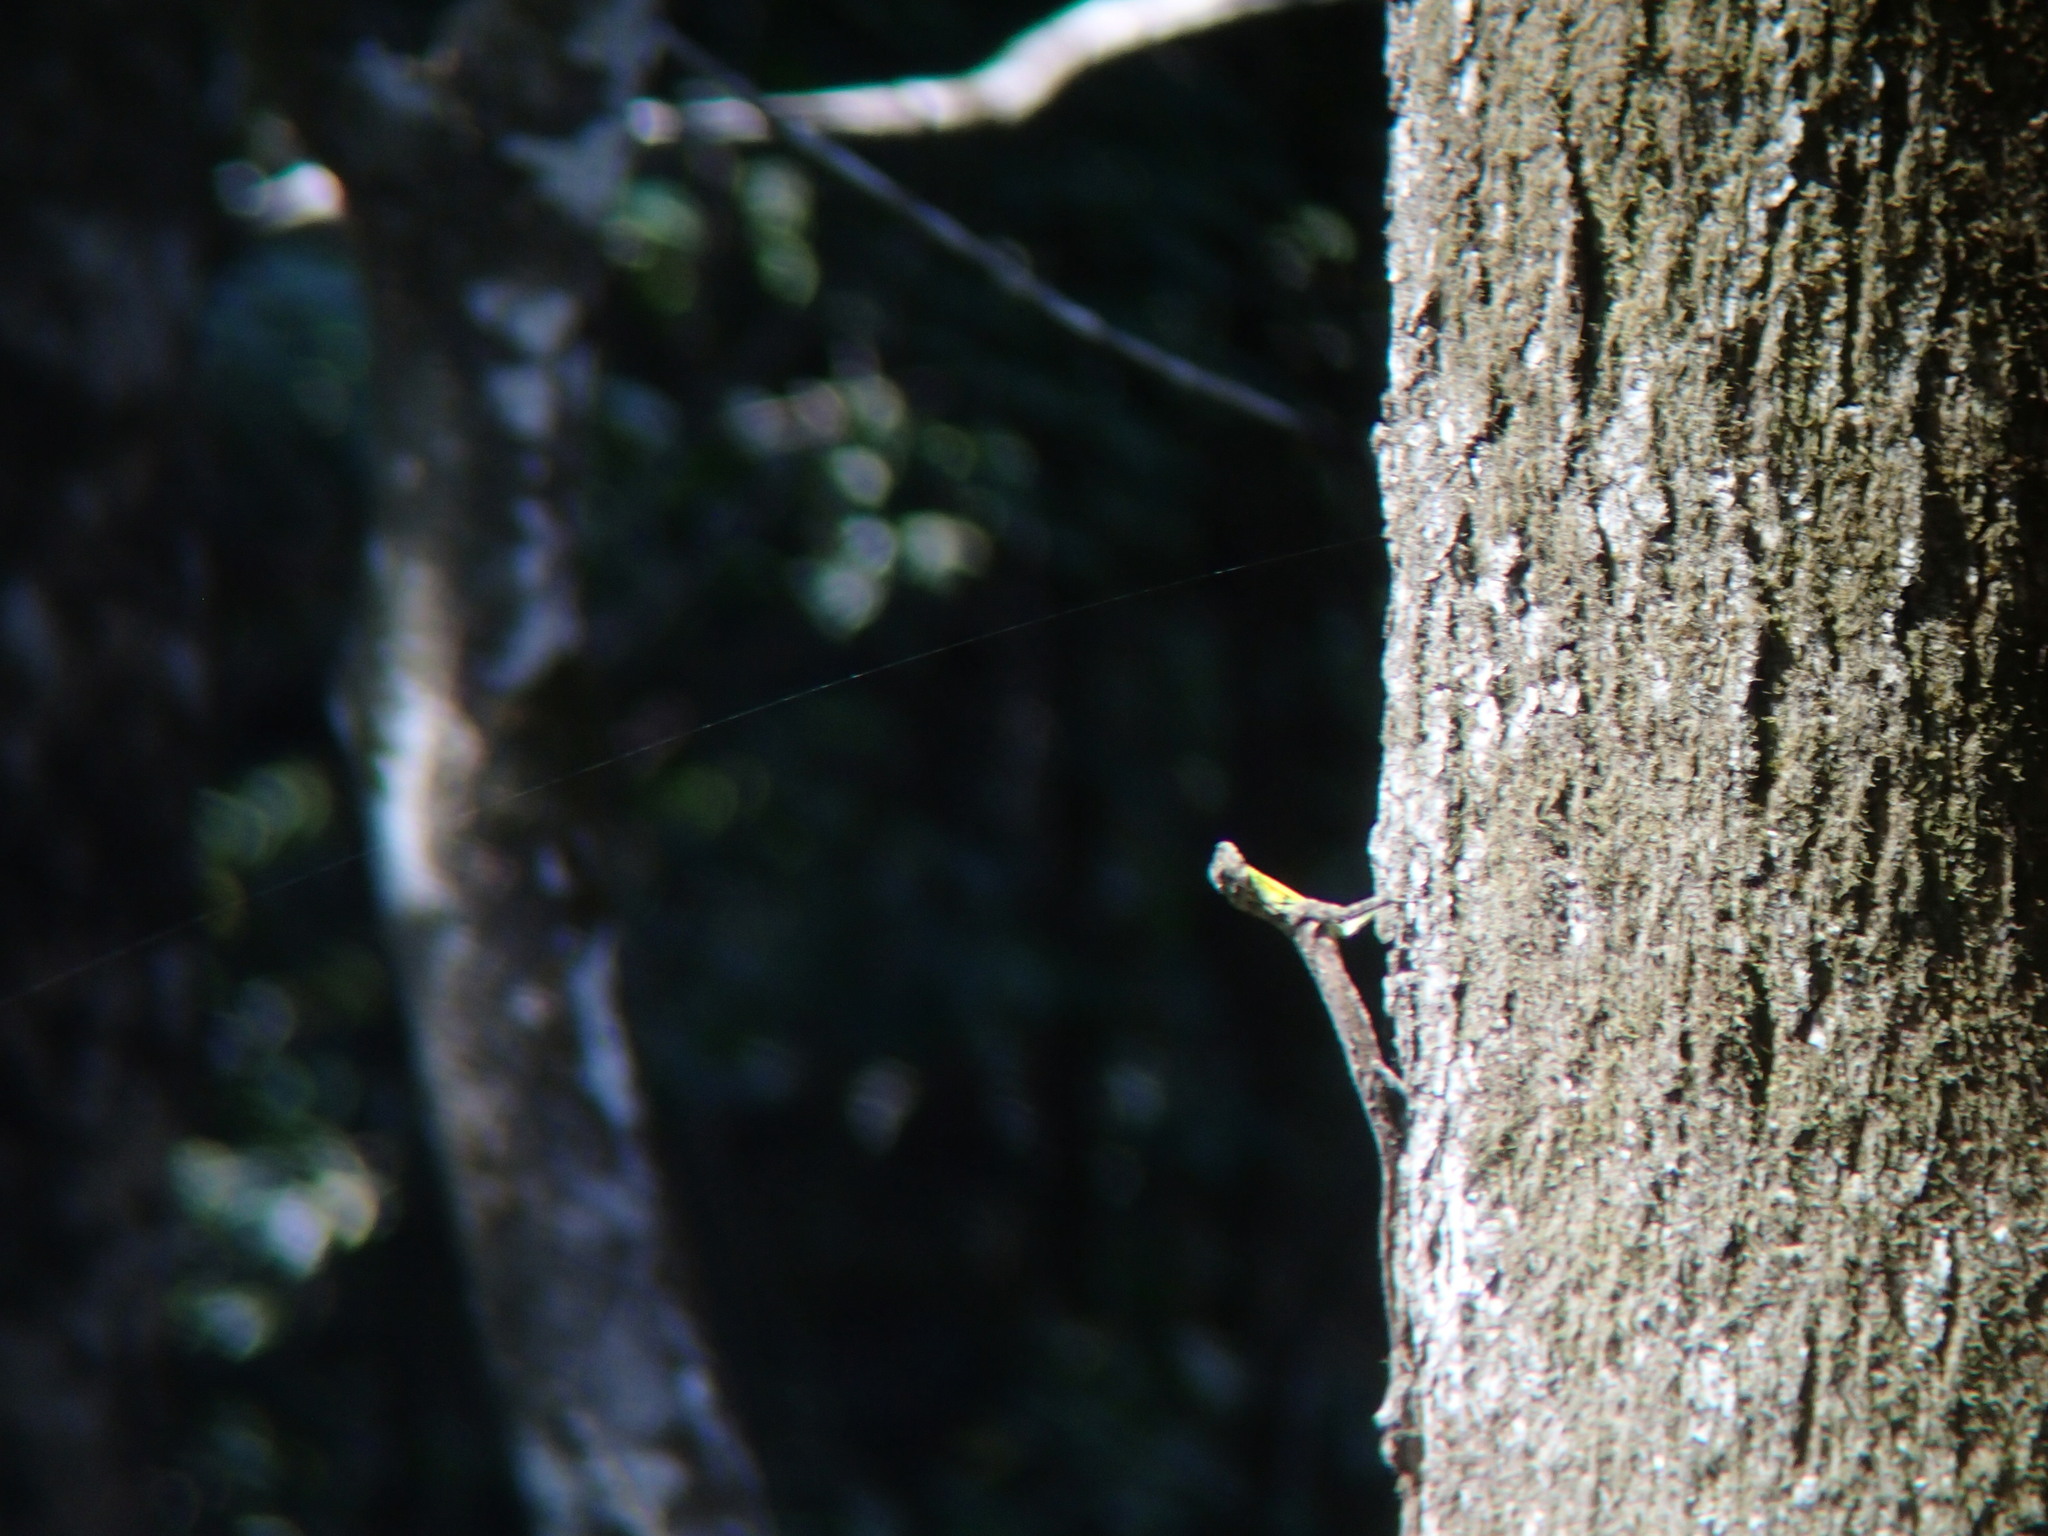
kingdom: Animalia
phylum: Chordata
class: Squamata
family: Agamidae
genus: Draco
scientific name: Draco dussumieri
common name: Southern flying lizard
